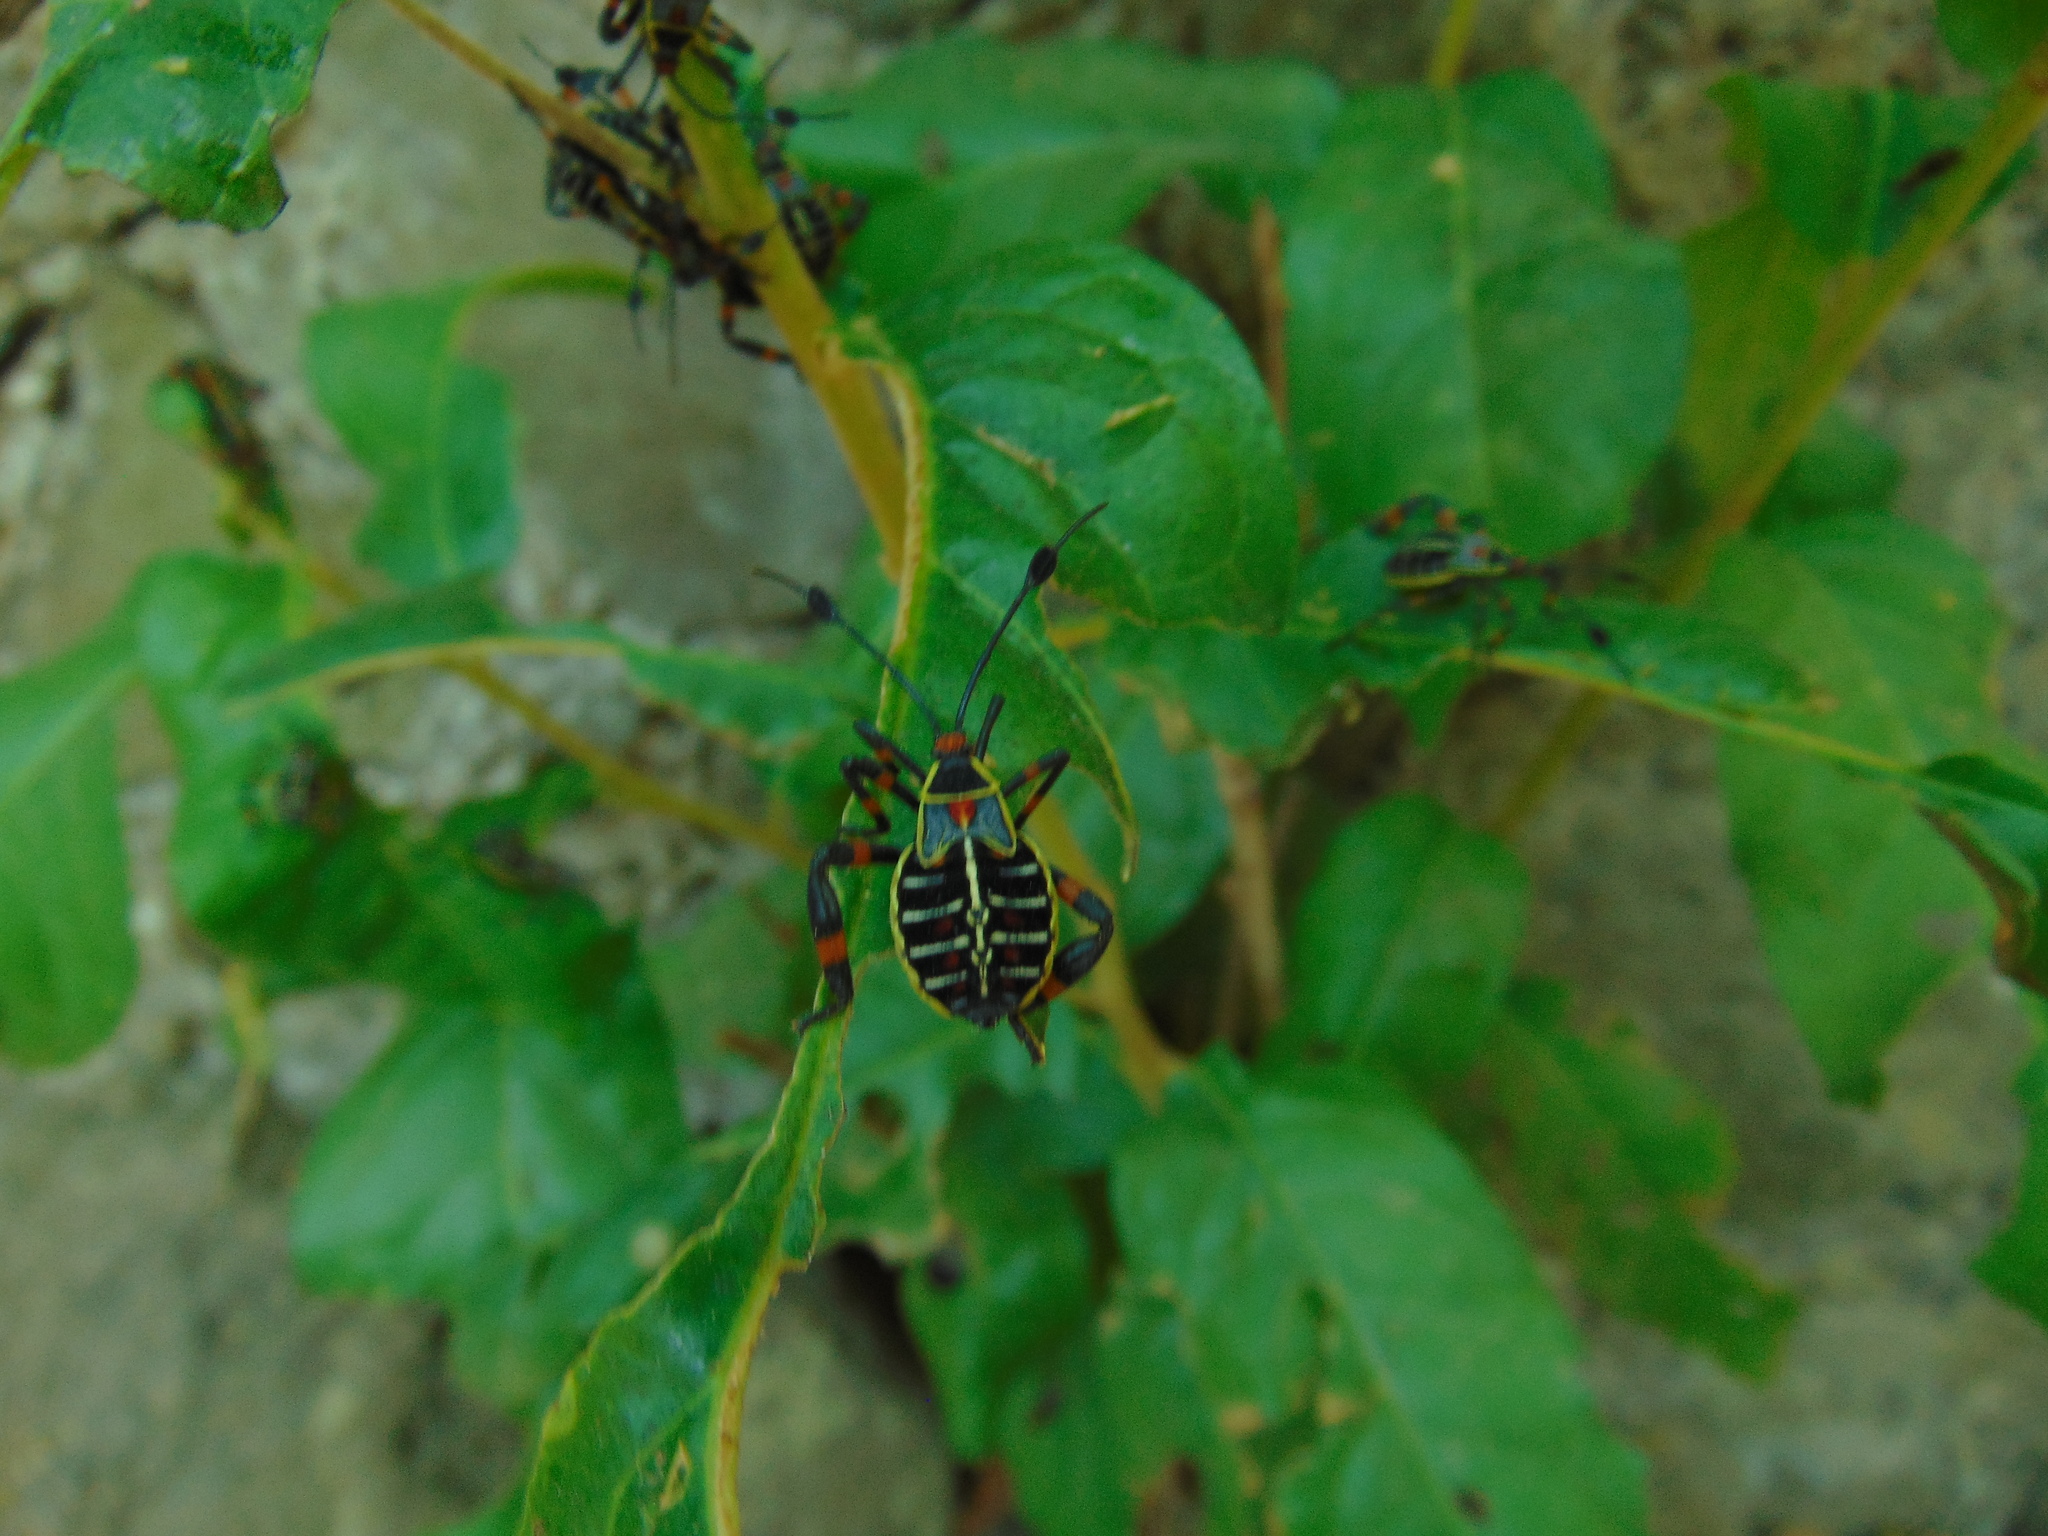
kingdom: Animalia
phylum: Arthropoda
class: Insecta
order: Hemiptera
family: Coreidae
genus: Thasus
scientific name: Thasus acutangulus
